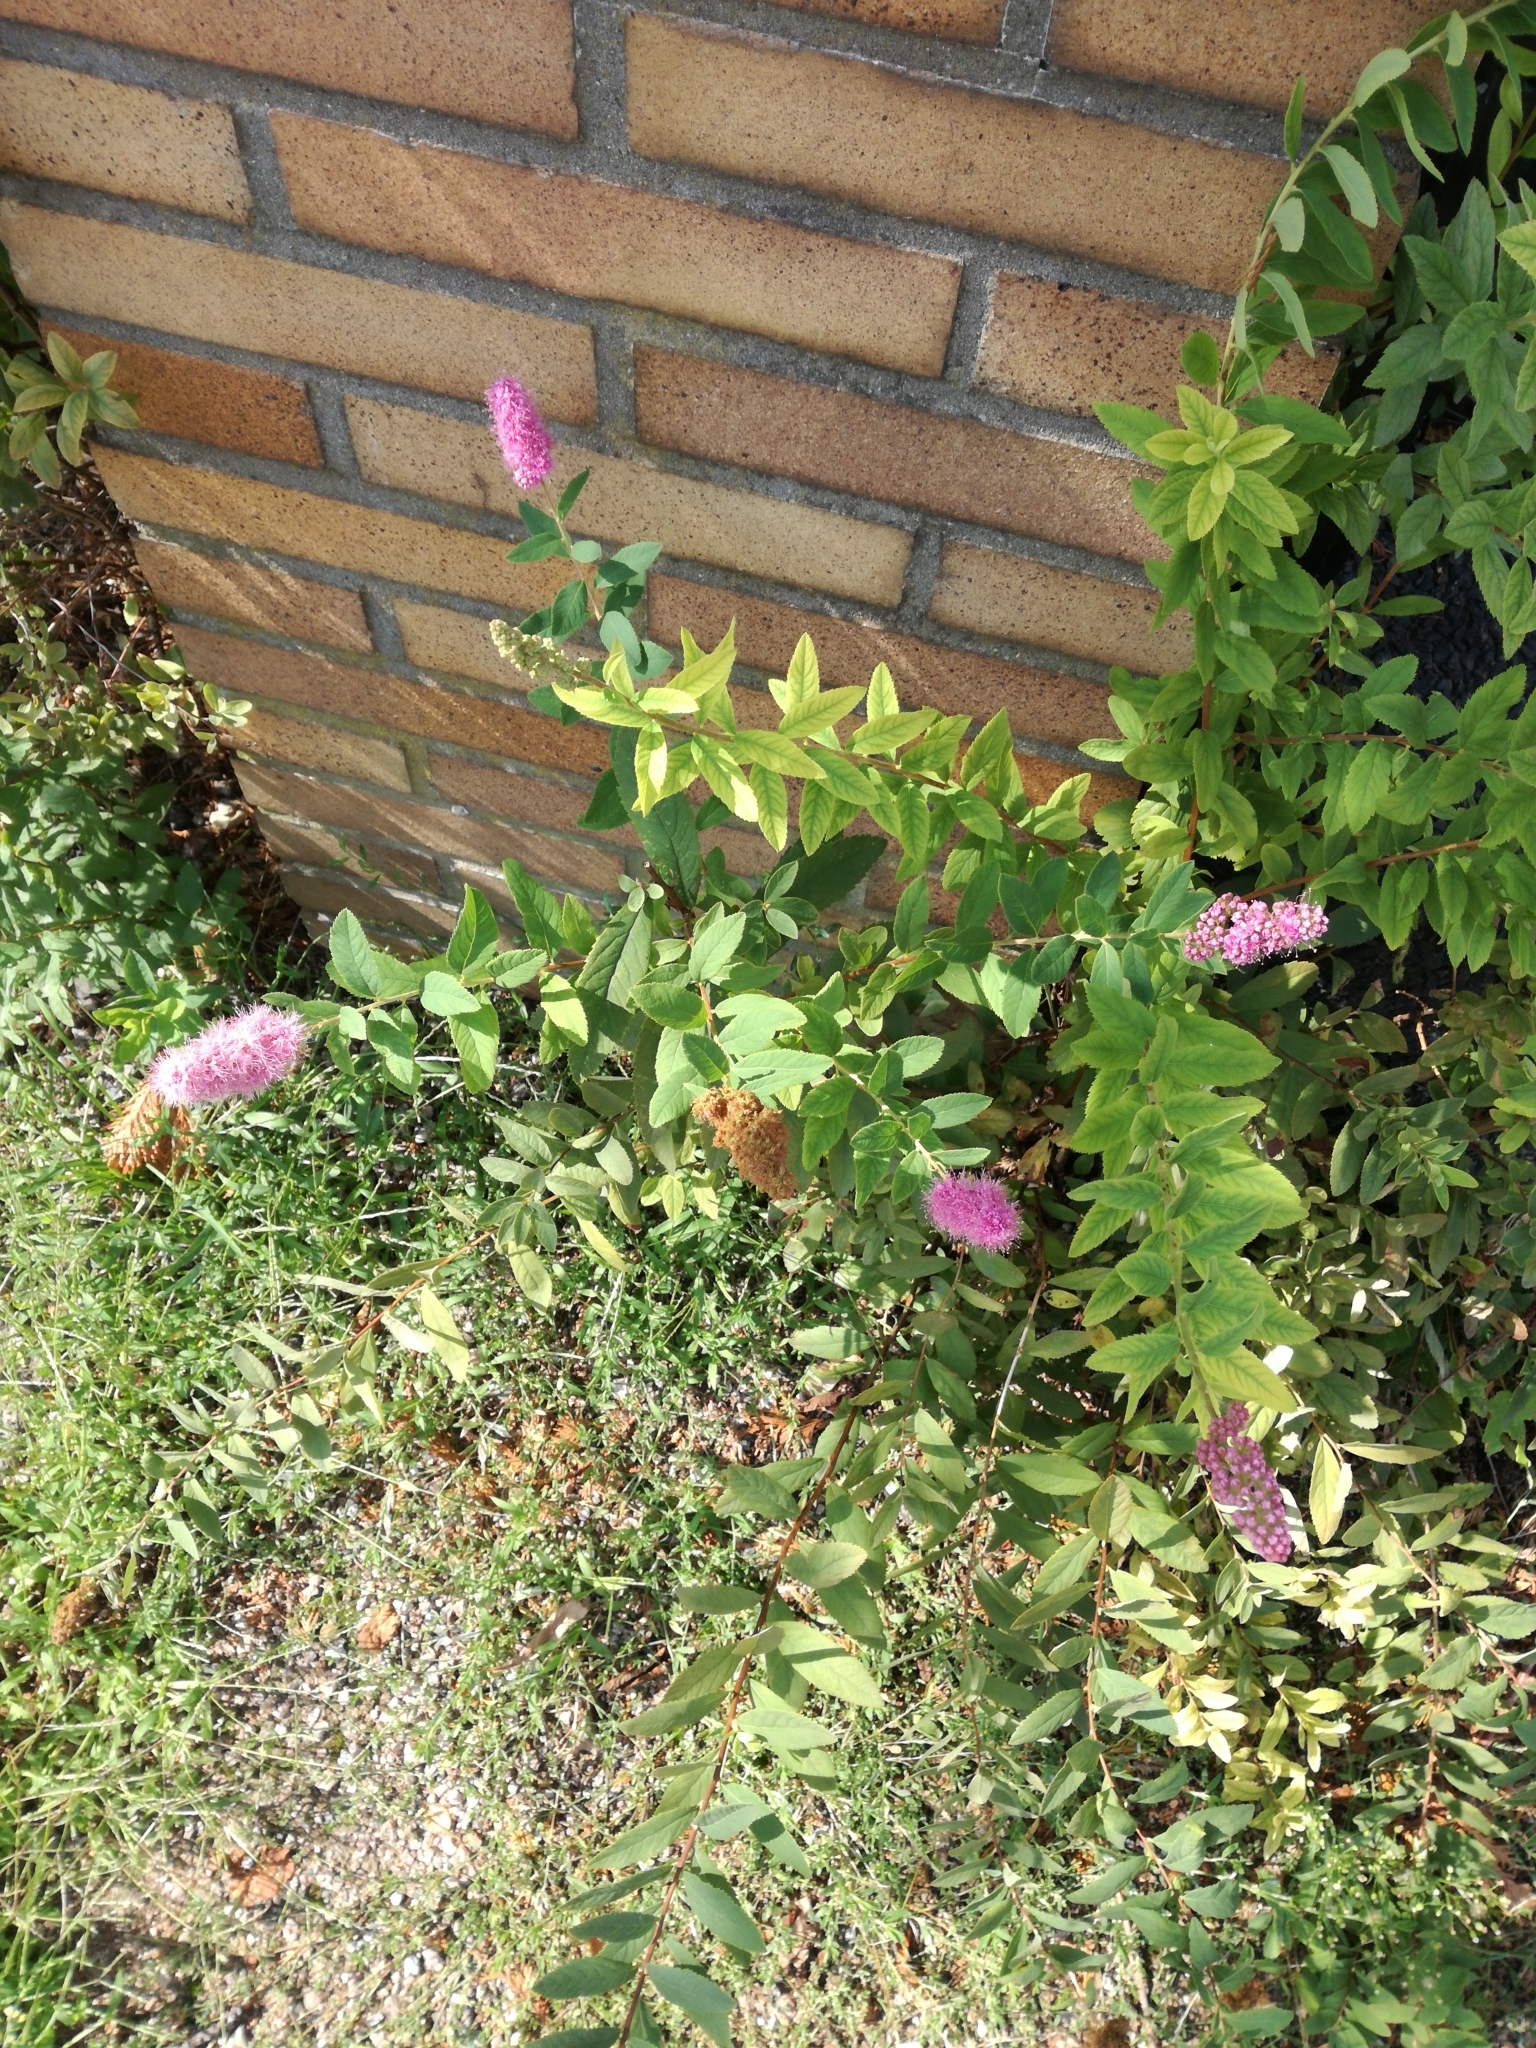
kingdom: Plantae
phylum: Tracheophyta
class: Magnoliopsida
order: Rosales
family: Rosaceae
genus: Spiraea
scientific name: Spiraea douglasii
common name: Steeplebush
